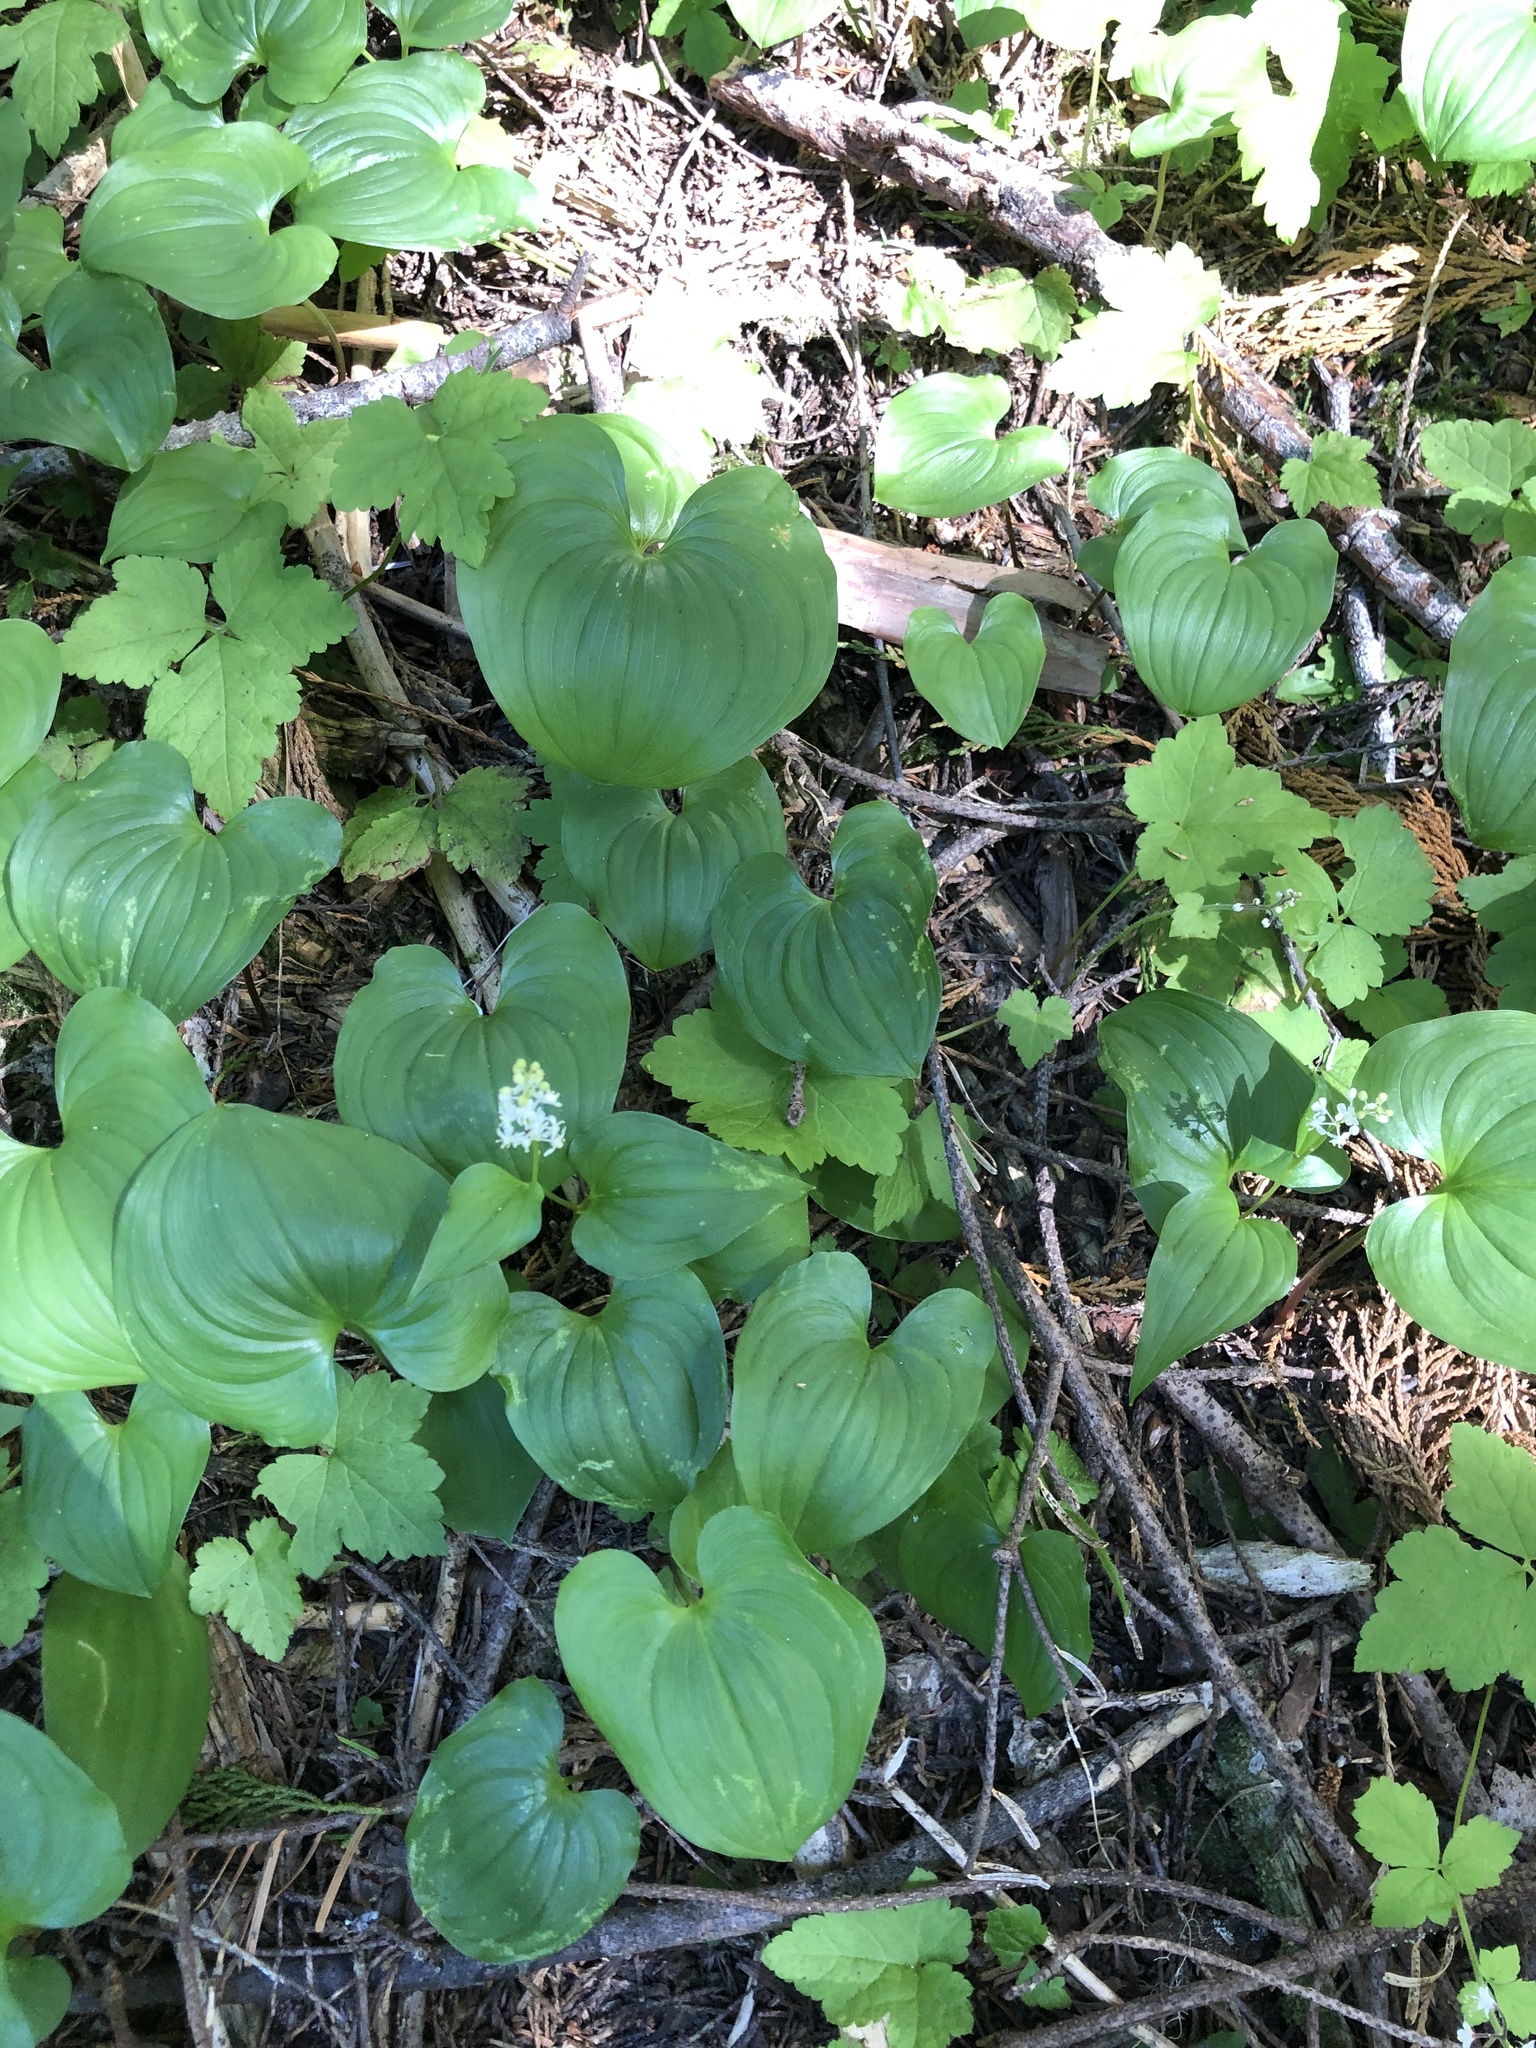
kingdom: Plantae
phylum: Tracheophyta
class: Liliopsida
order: Asparagales
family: Asparagaceae
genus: Maianthemum
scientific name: Maianthemum dilatatum
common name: False lily-of-the-valley
